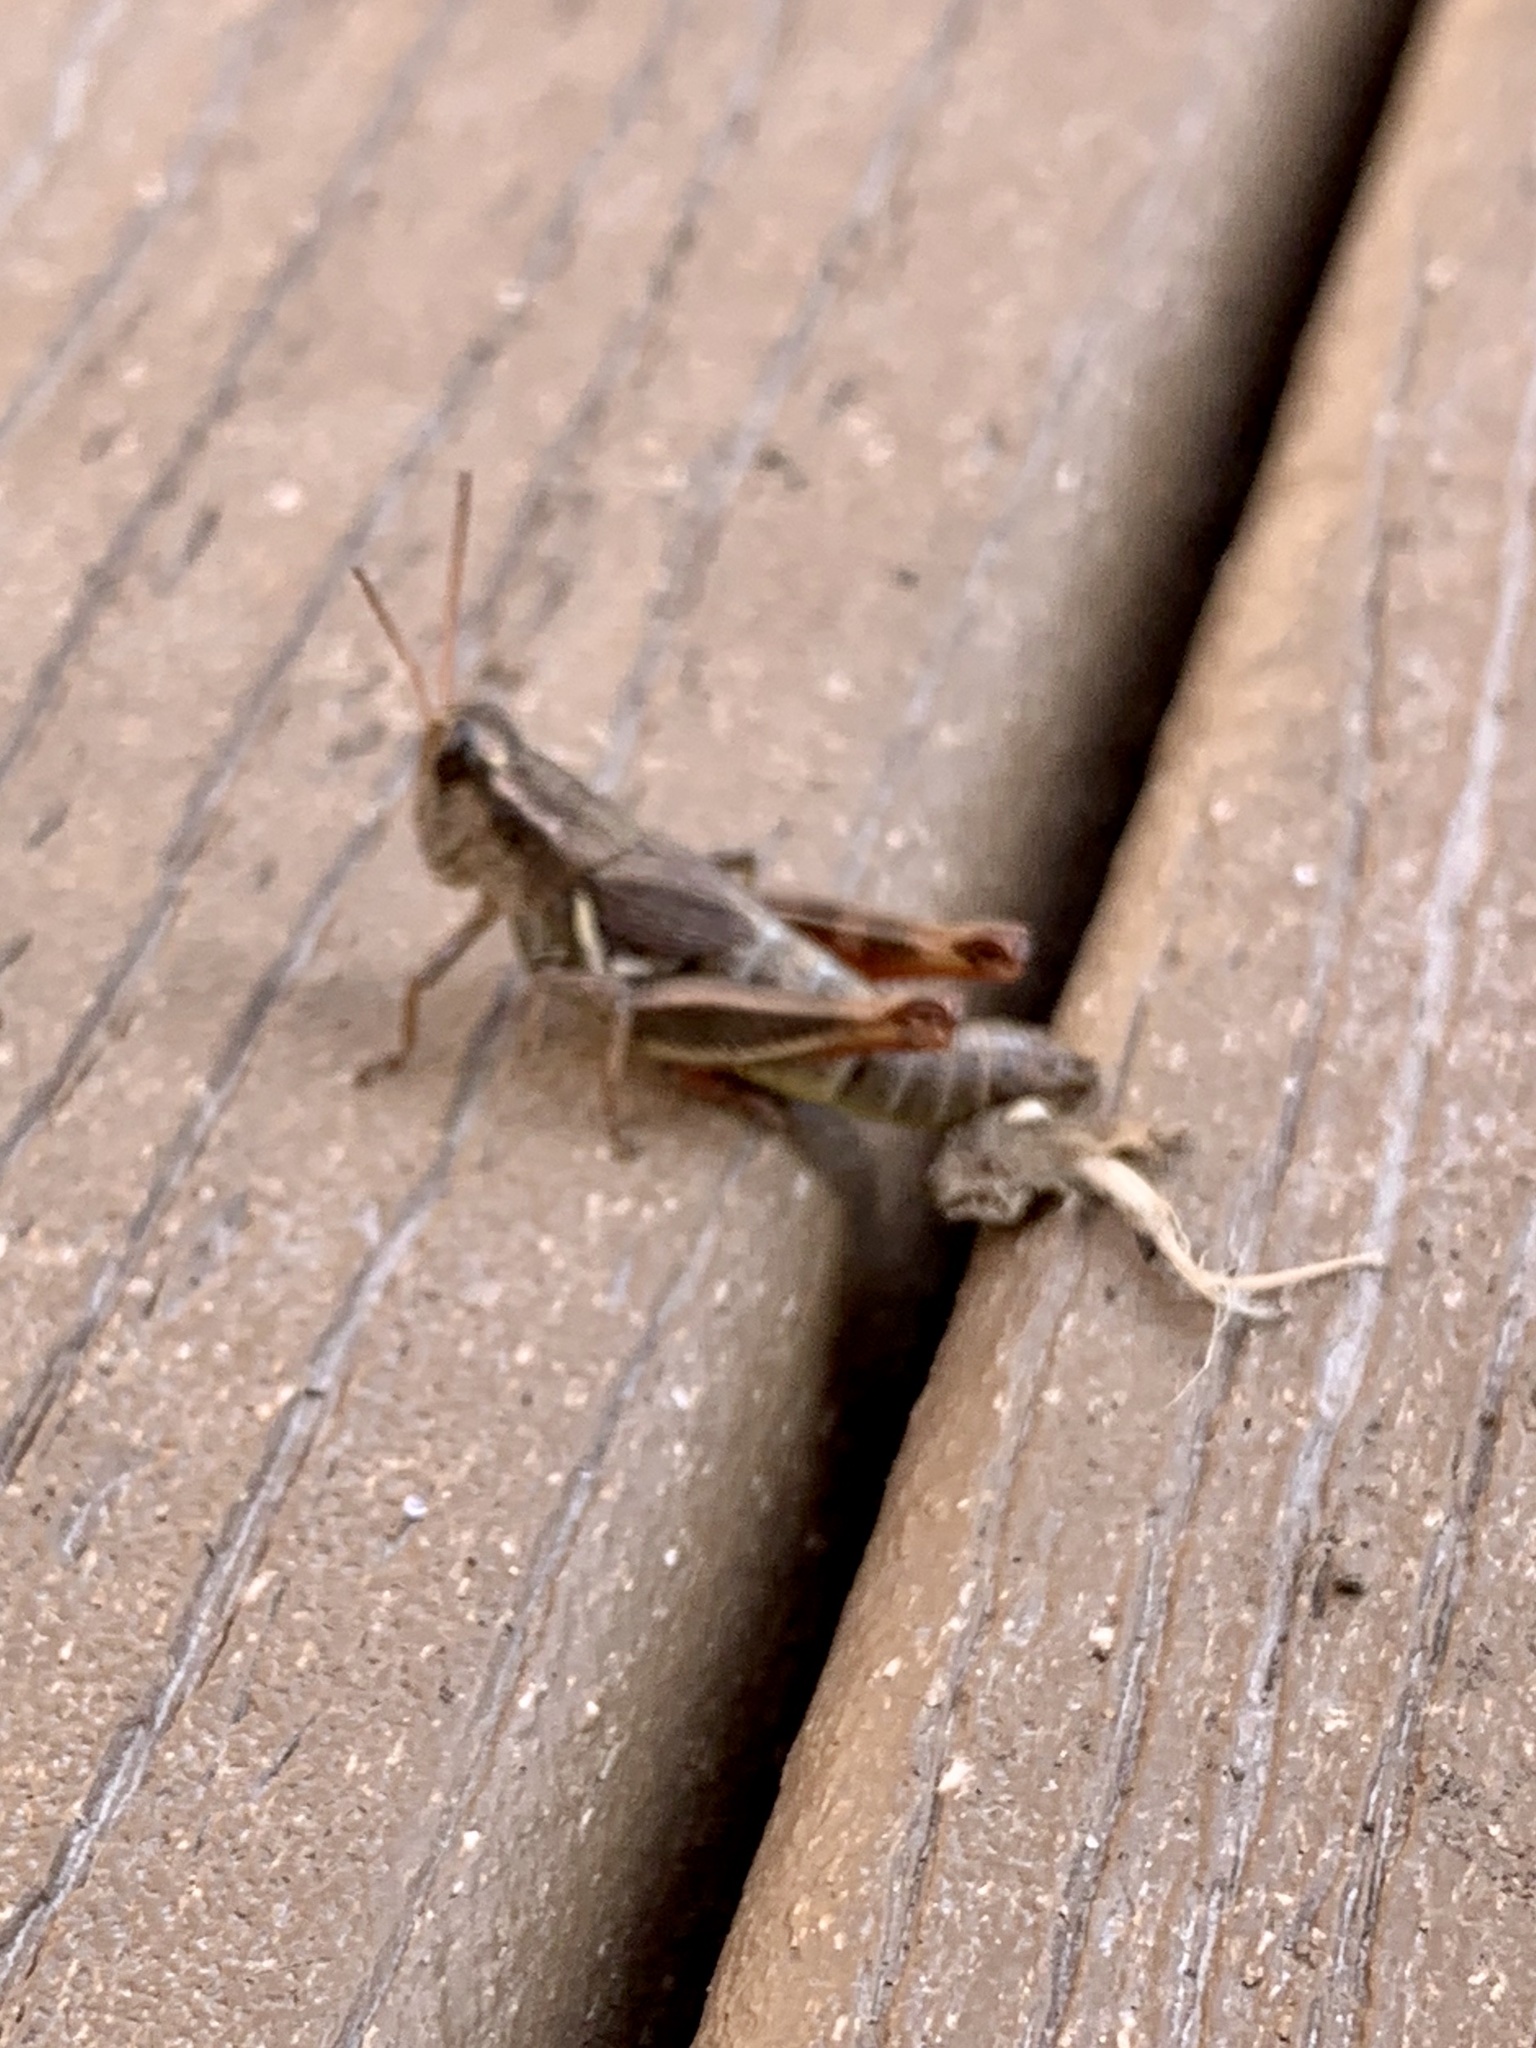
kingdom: Animalia
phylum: Arthropoda
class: Insecta
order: Orthoptera
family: Acrididae
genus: Melanoplus
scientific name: Melanoplus adapi
